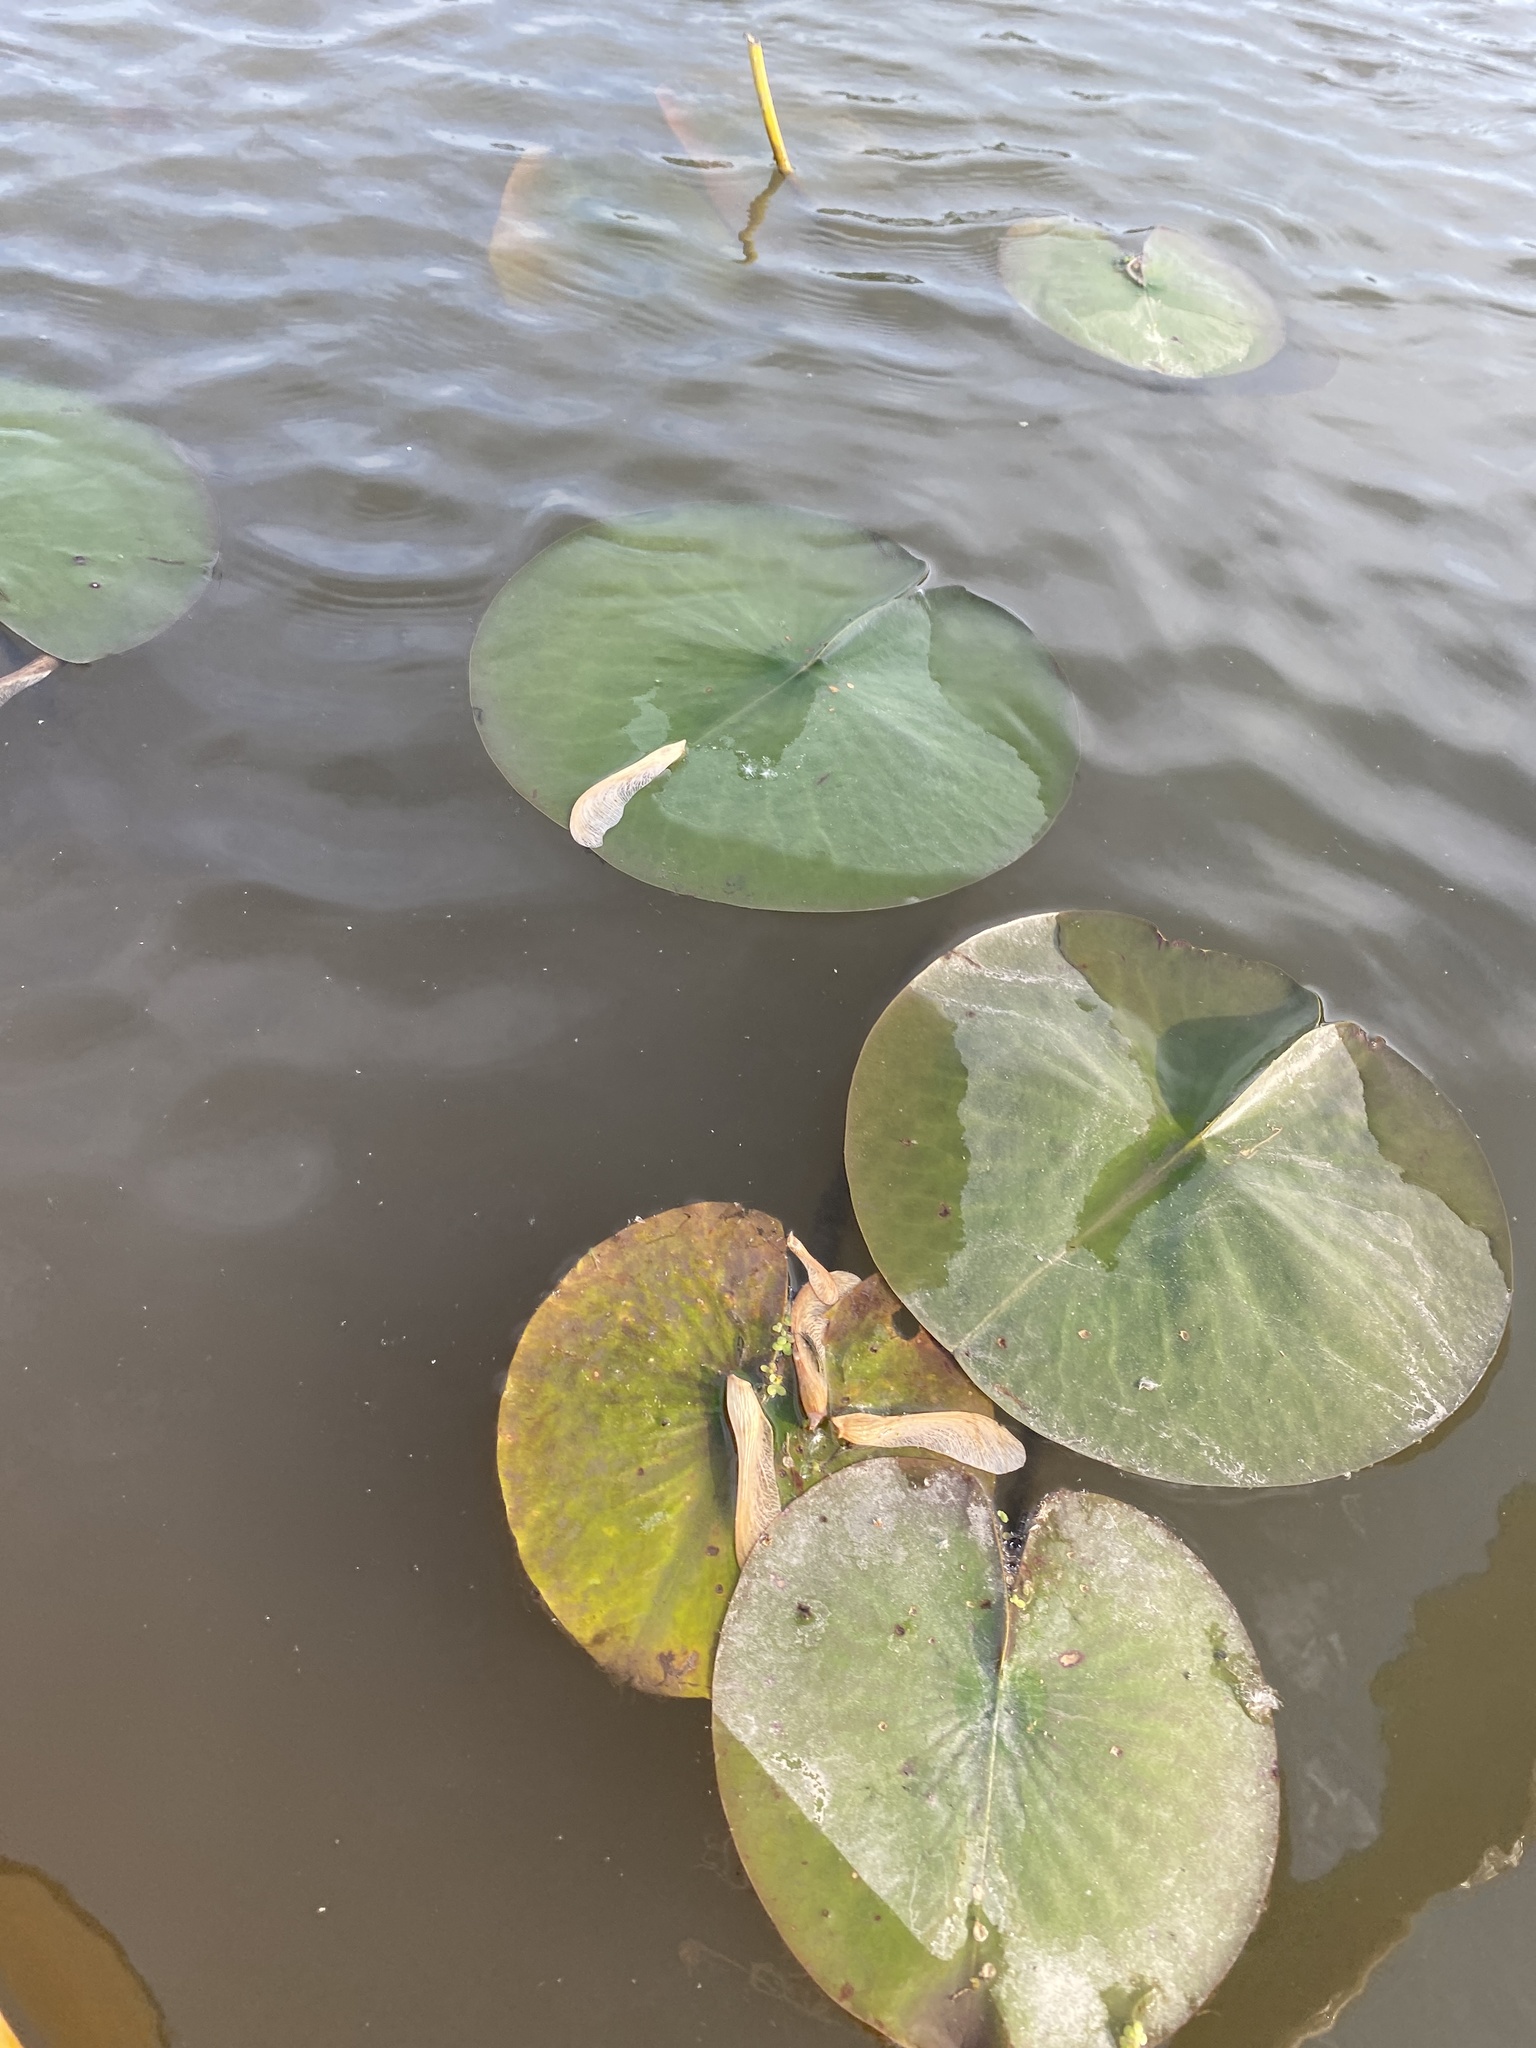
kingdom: Plantae
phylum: Tracheophyta
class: Magnoliopsida
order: Nymphaeales
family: Nymphaeaceae
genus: Nymphaea
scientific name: Nymphaea odorata
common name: Fragrant water-lily
